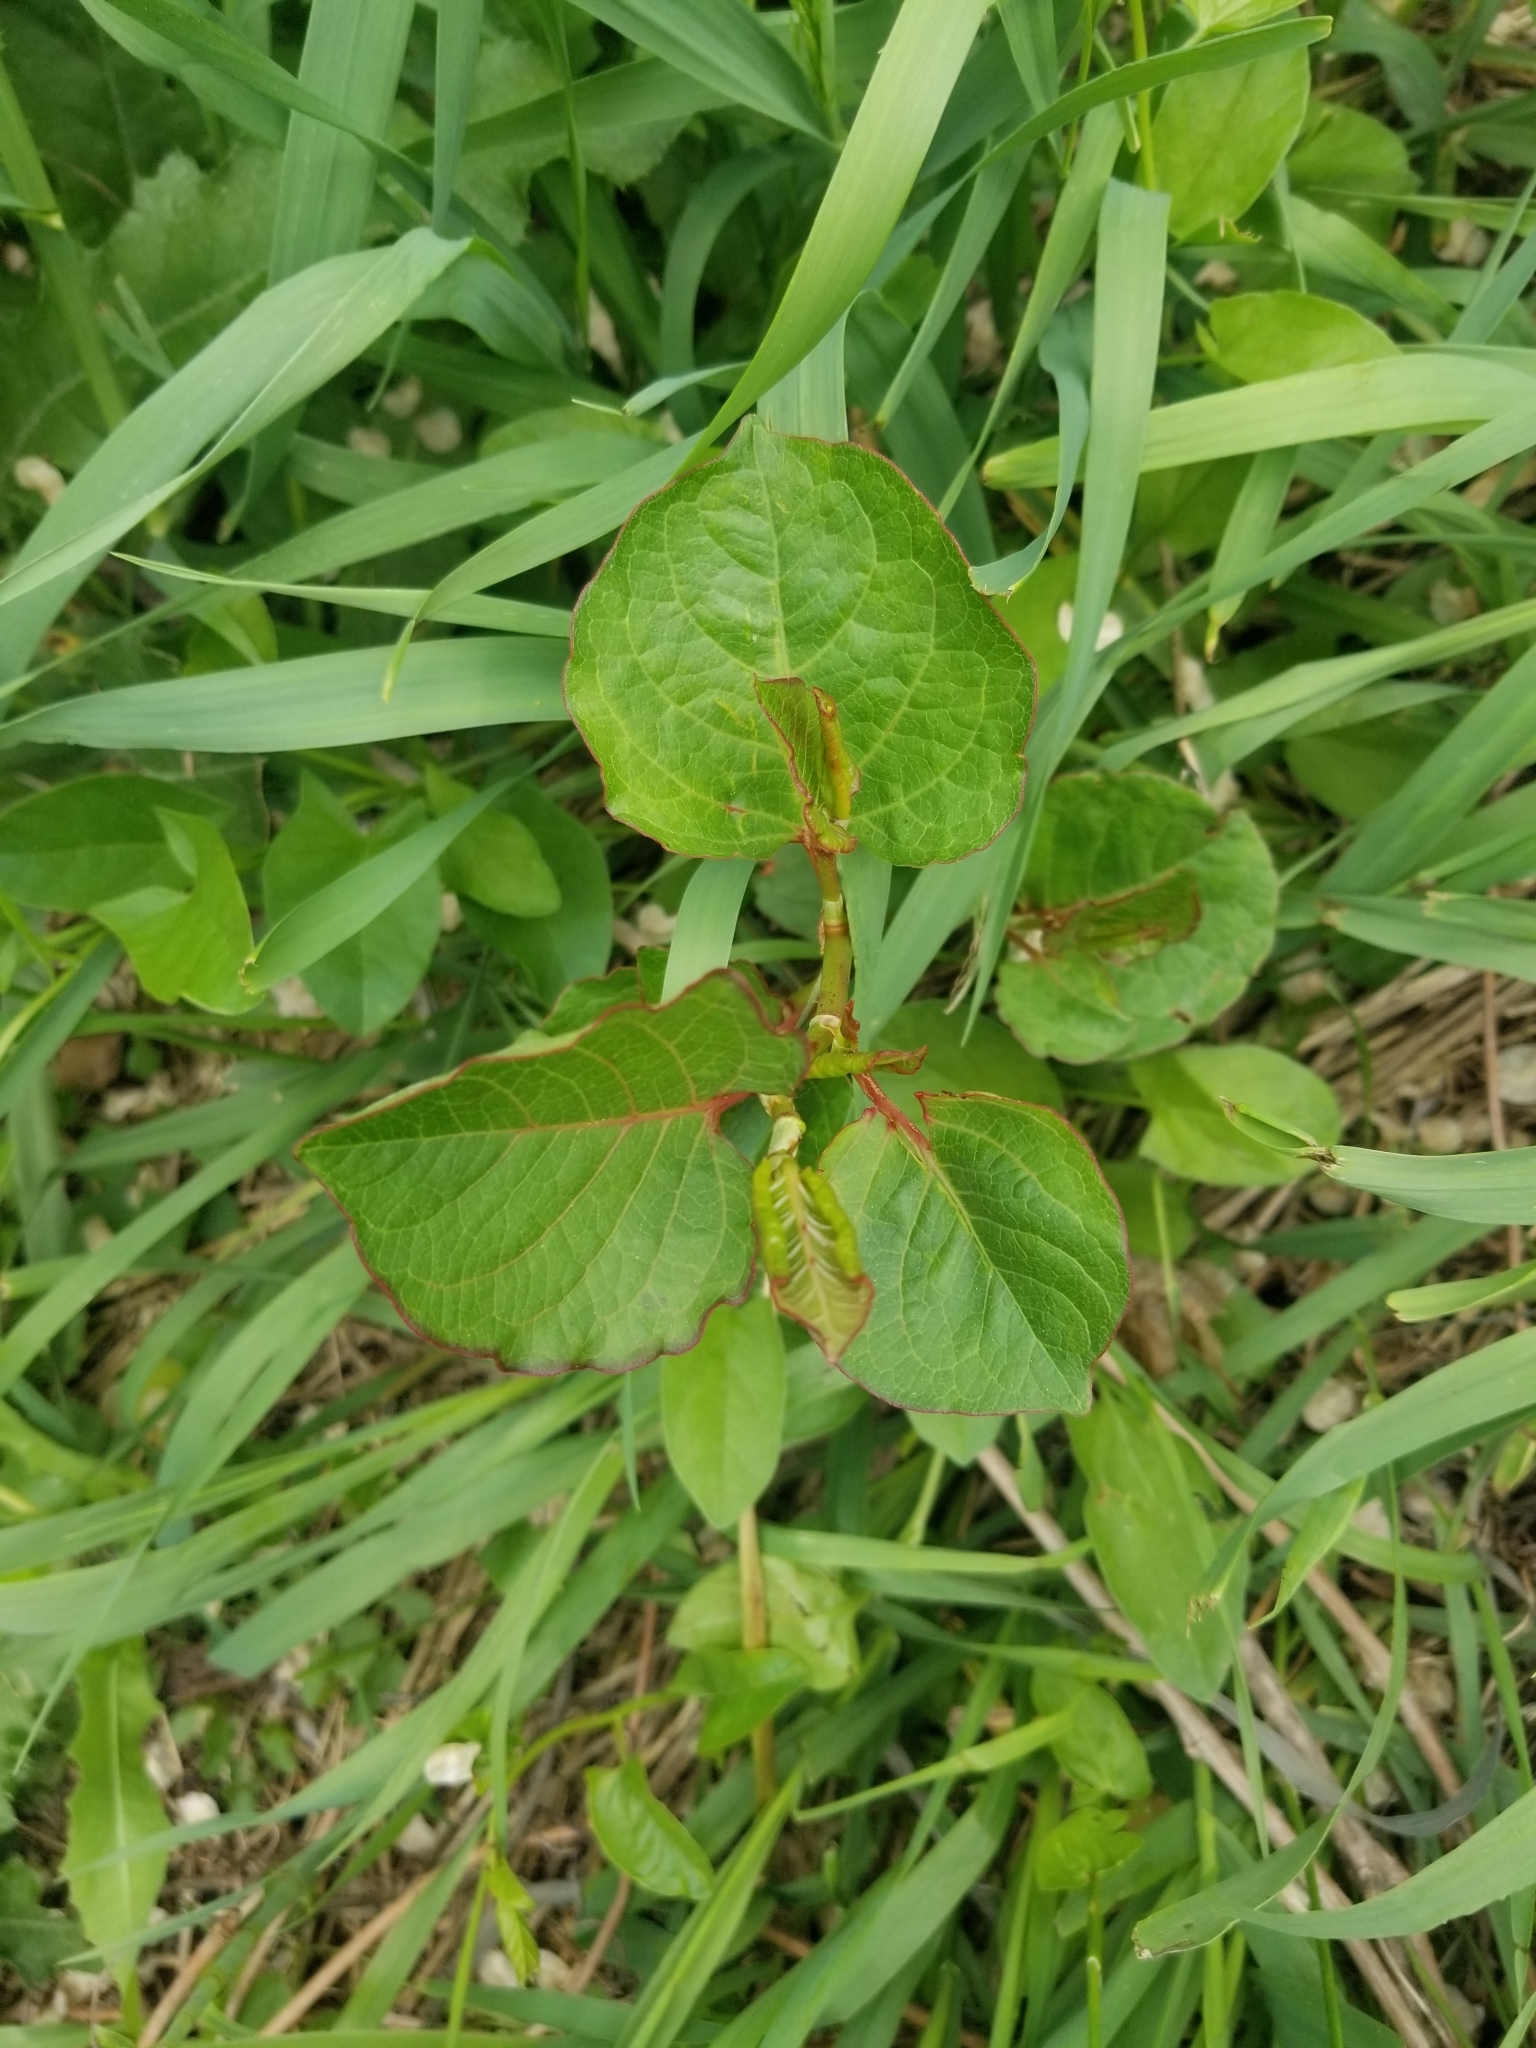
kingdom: Plantae
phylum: Tracheophyta
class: Magnoliopsida
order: Caryophyllales
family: Polygonaceae
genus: Reynoutria
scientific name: Reynoutria japonica
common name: Japanese knotweed
